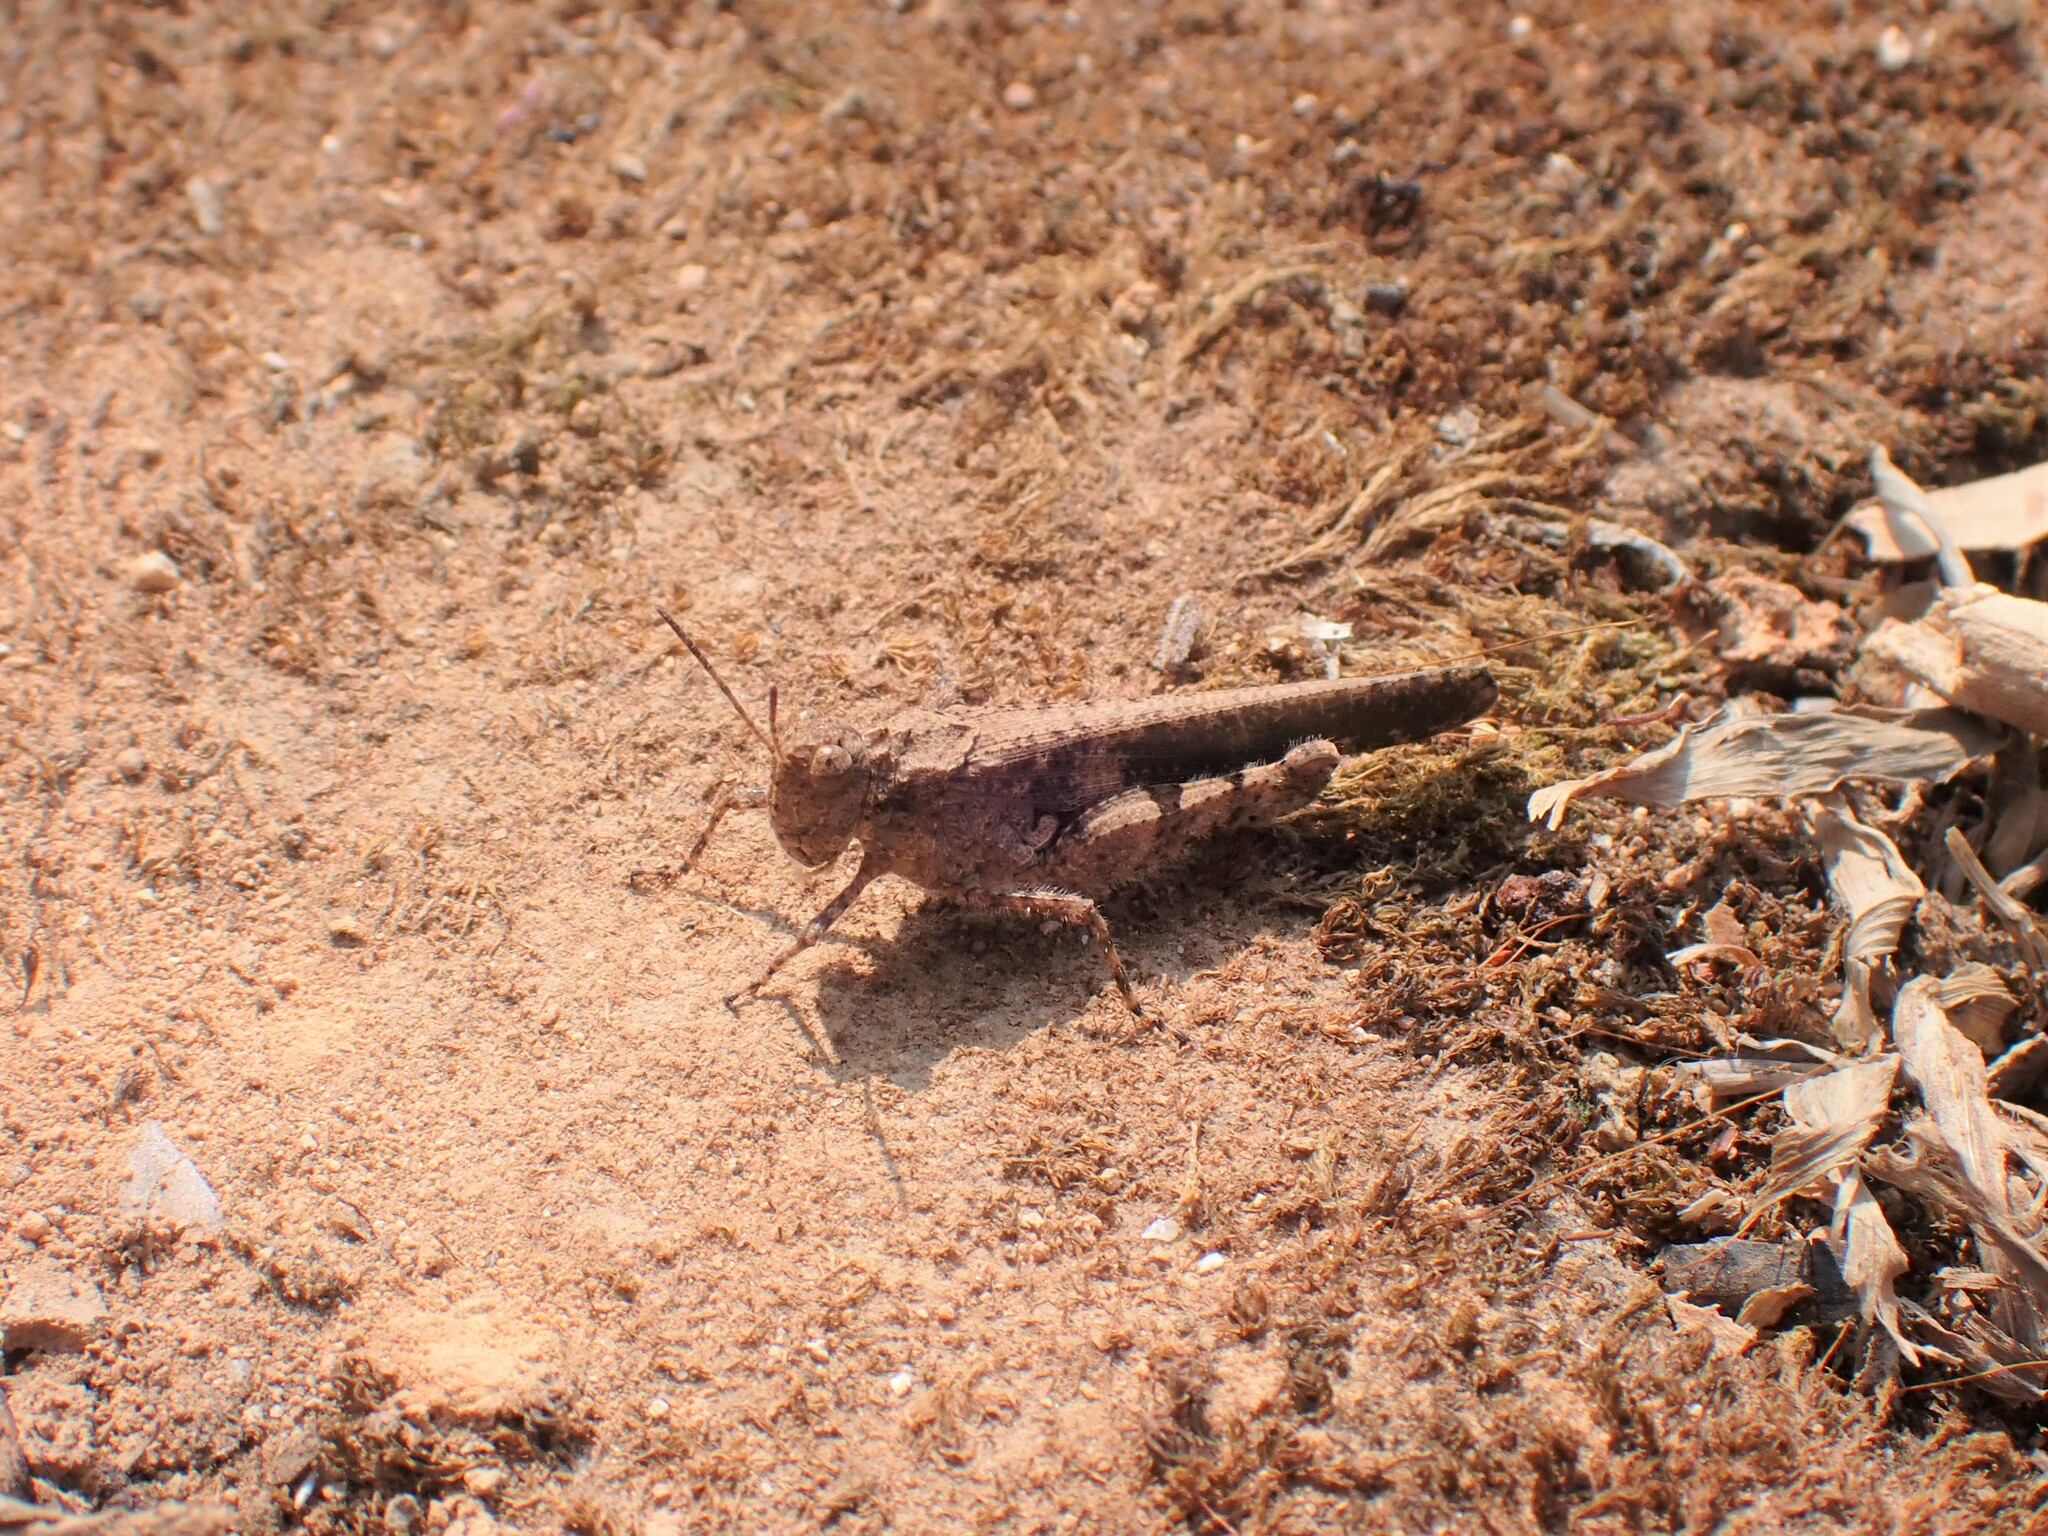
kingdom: Animalia
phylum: Arthropoda
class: Insecta
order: Orthoptera
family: Acrididae
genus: Trilophidia
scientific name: Trilophidia annulata
